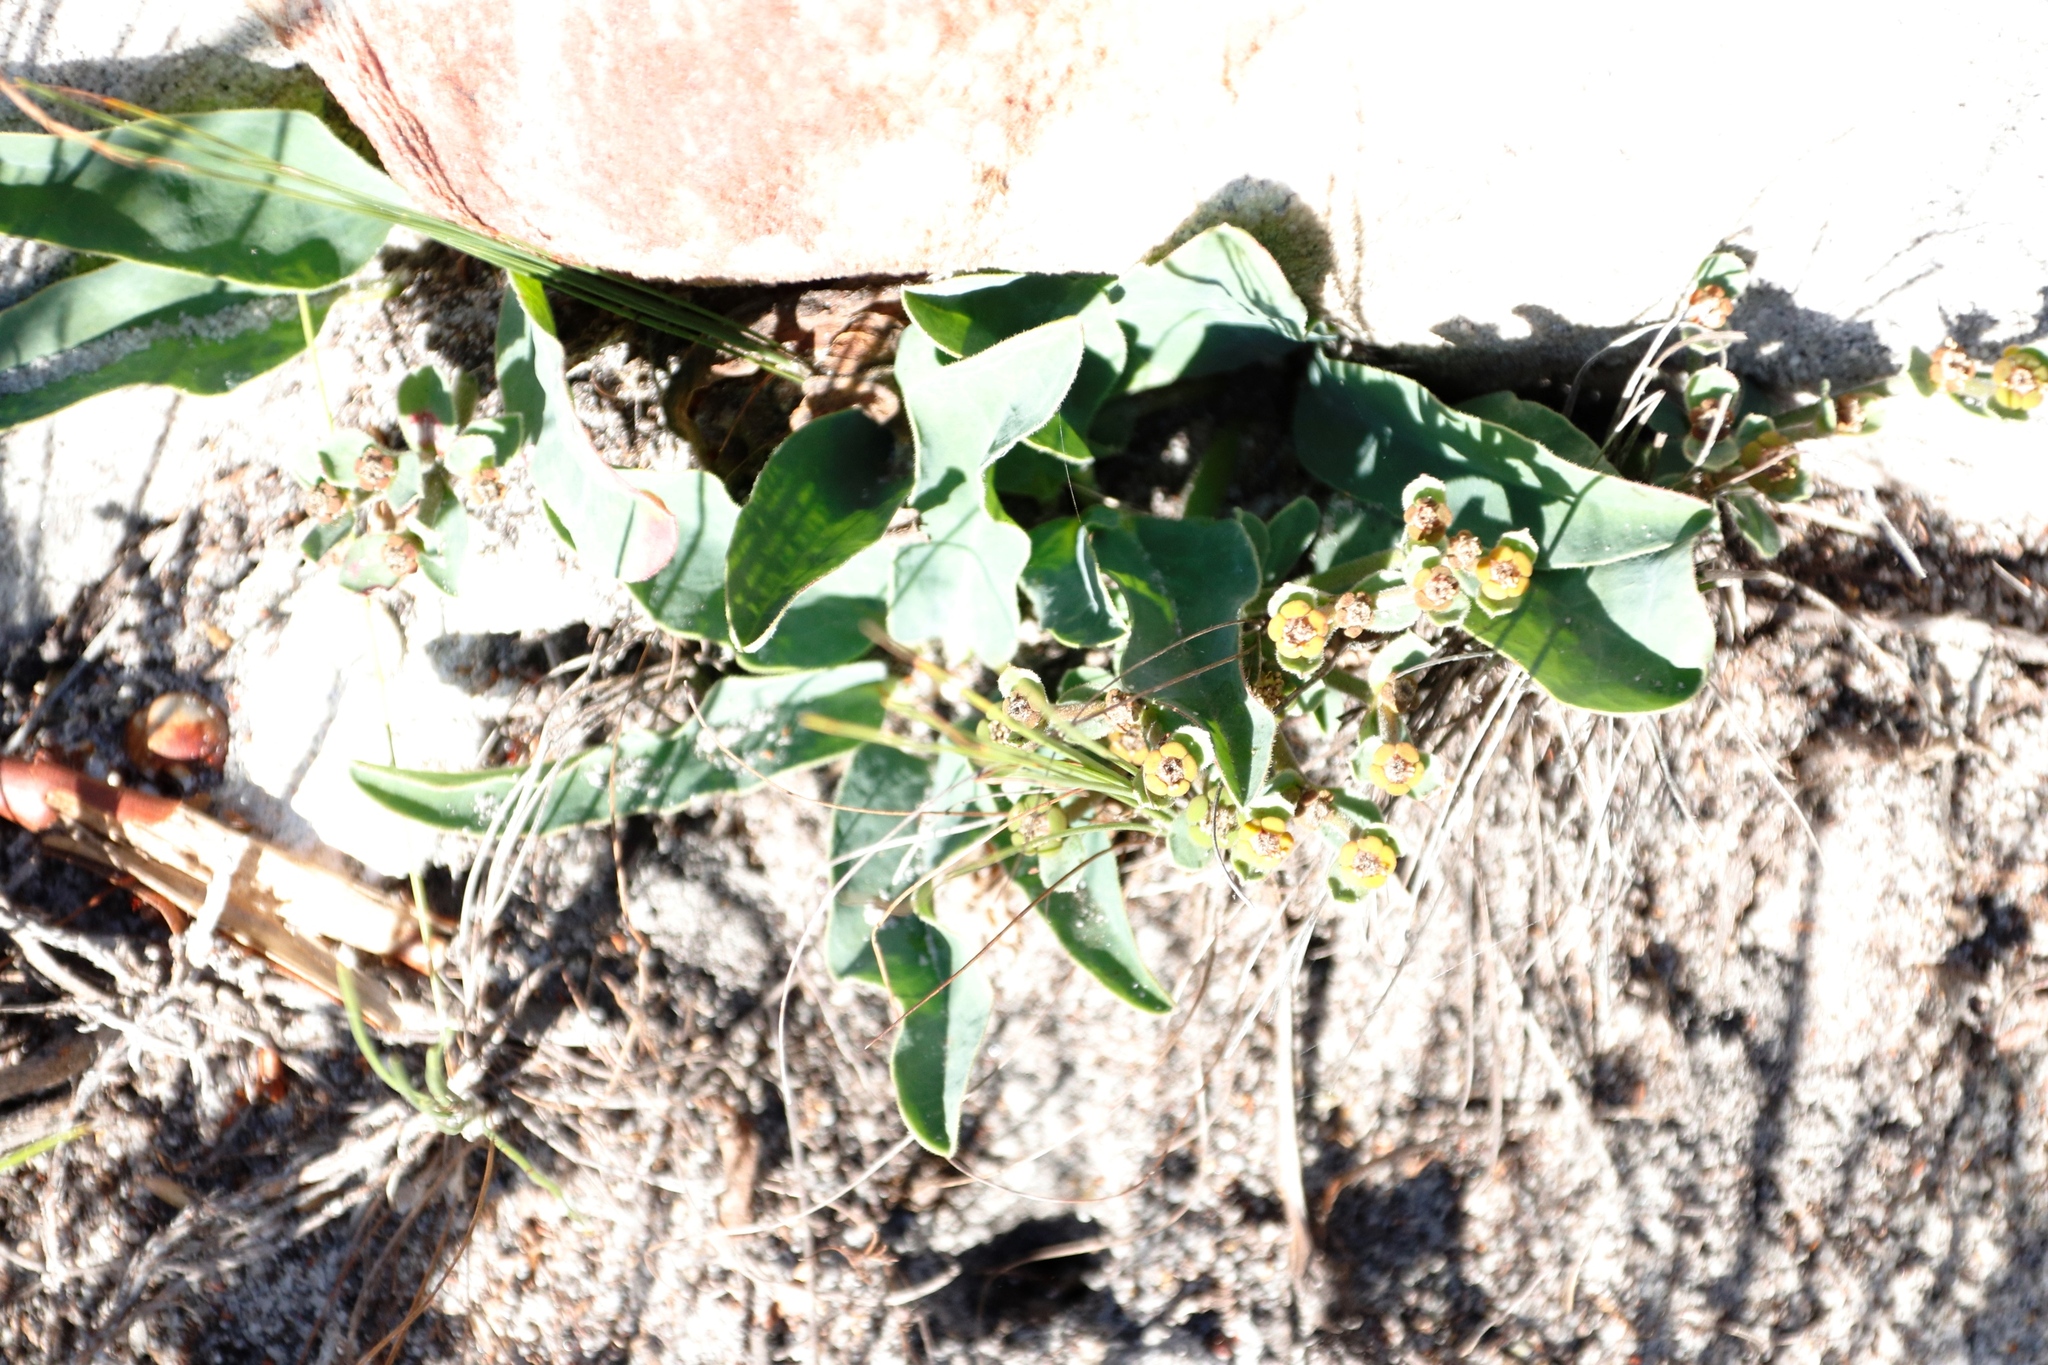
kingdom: Plantae
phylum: Tracheophyta
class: Magnoliopsida
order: Malpighiales
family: Euphorbiaceae
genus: Euphorbia
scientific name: Euphorbia tuberosa
